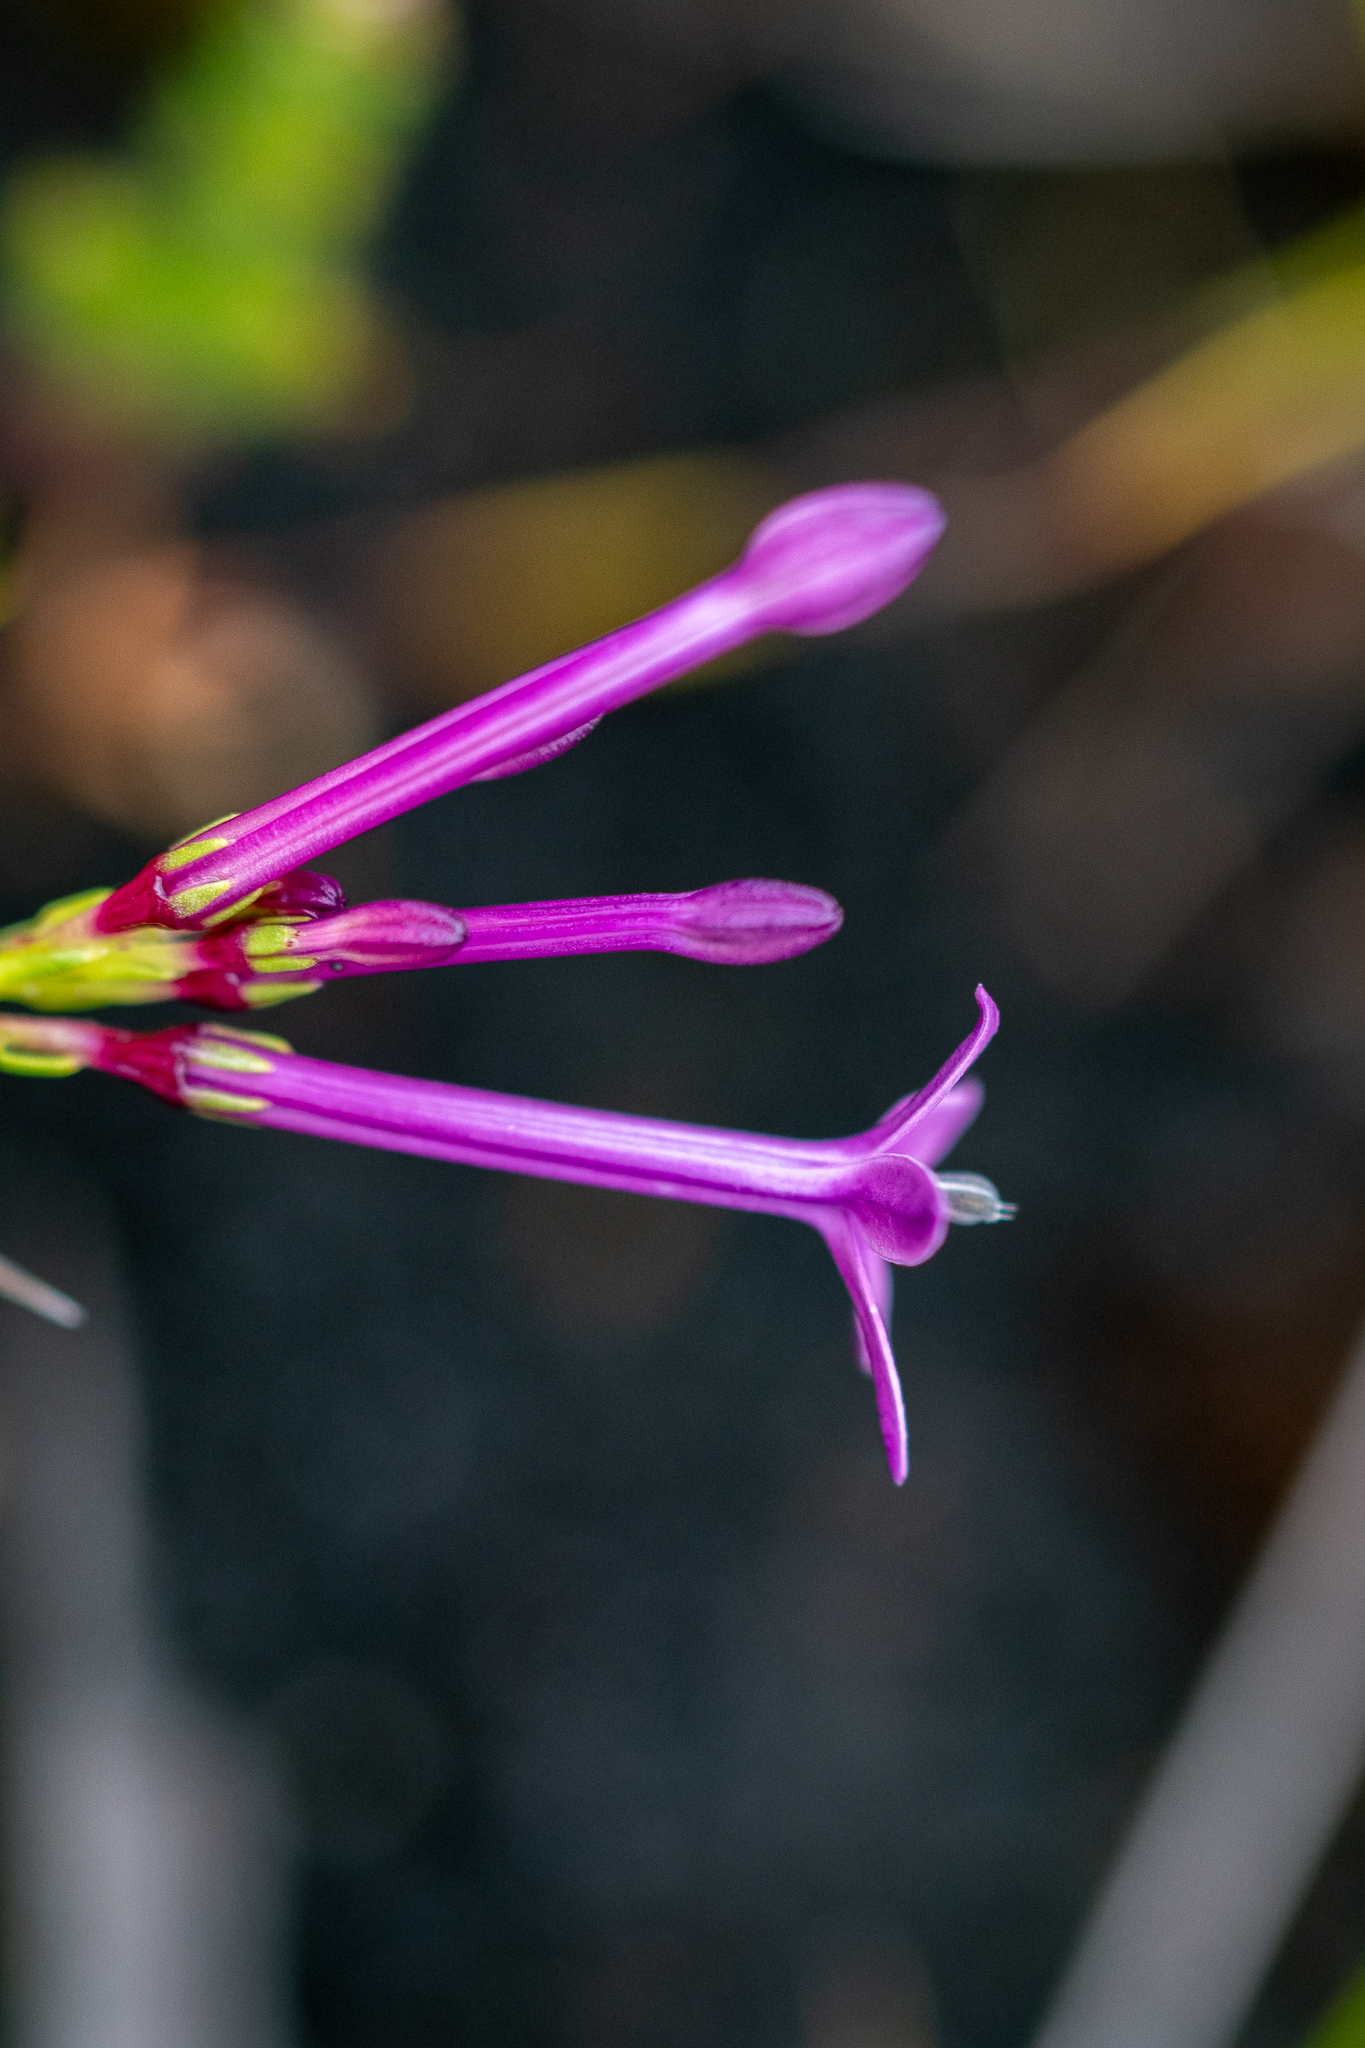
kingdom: Plantae
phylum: Tracheophyta
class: Magnoliopsida
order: Asterales
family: Campanulaceae
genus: Lobelia
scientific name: Lobelia stenosiphon
